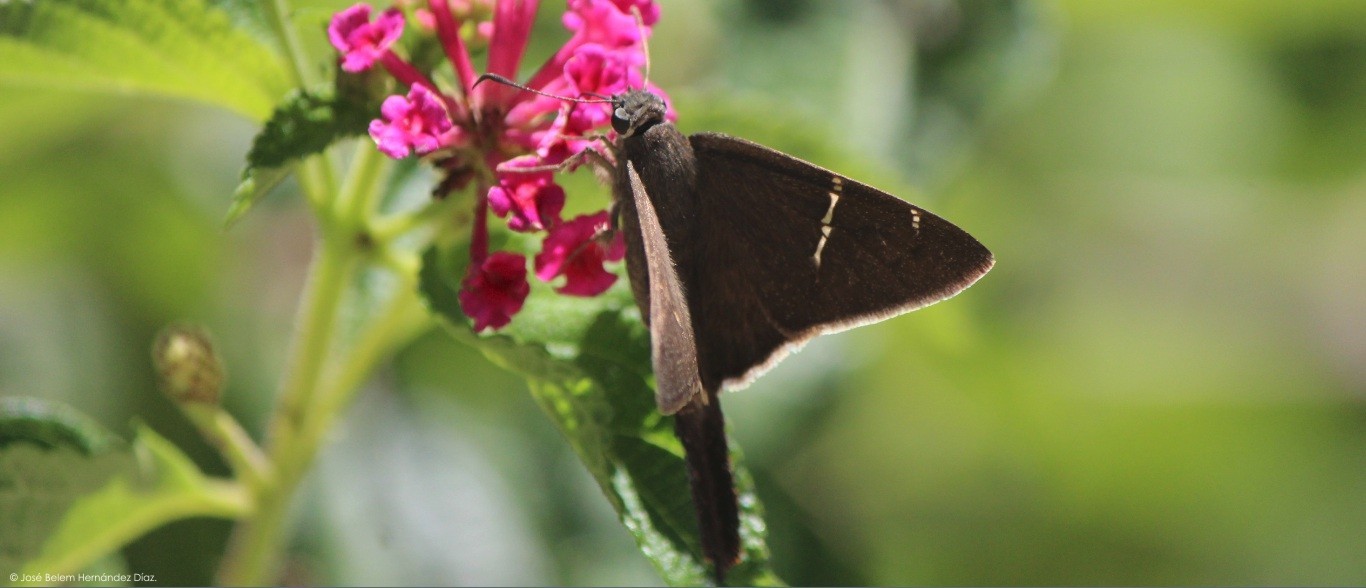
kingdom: Animalia
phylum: Arthropoda
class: Insecta
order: Lepidoptera
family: Hesperiidae
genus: Urbanus
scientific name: Urbanus procne
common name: Brown longtail
